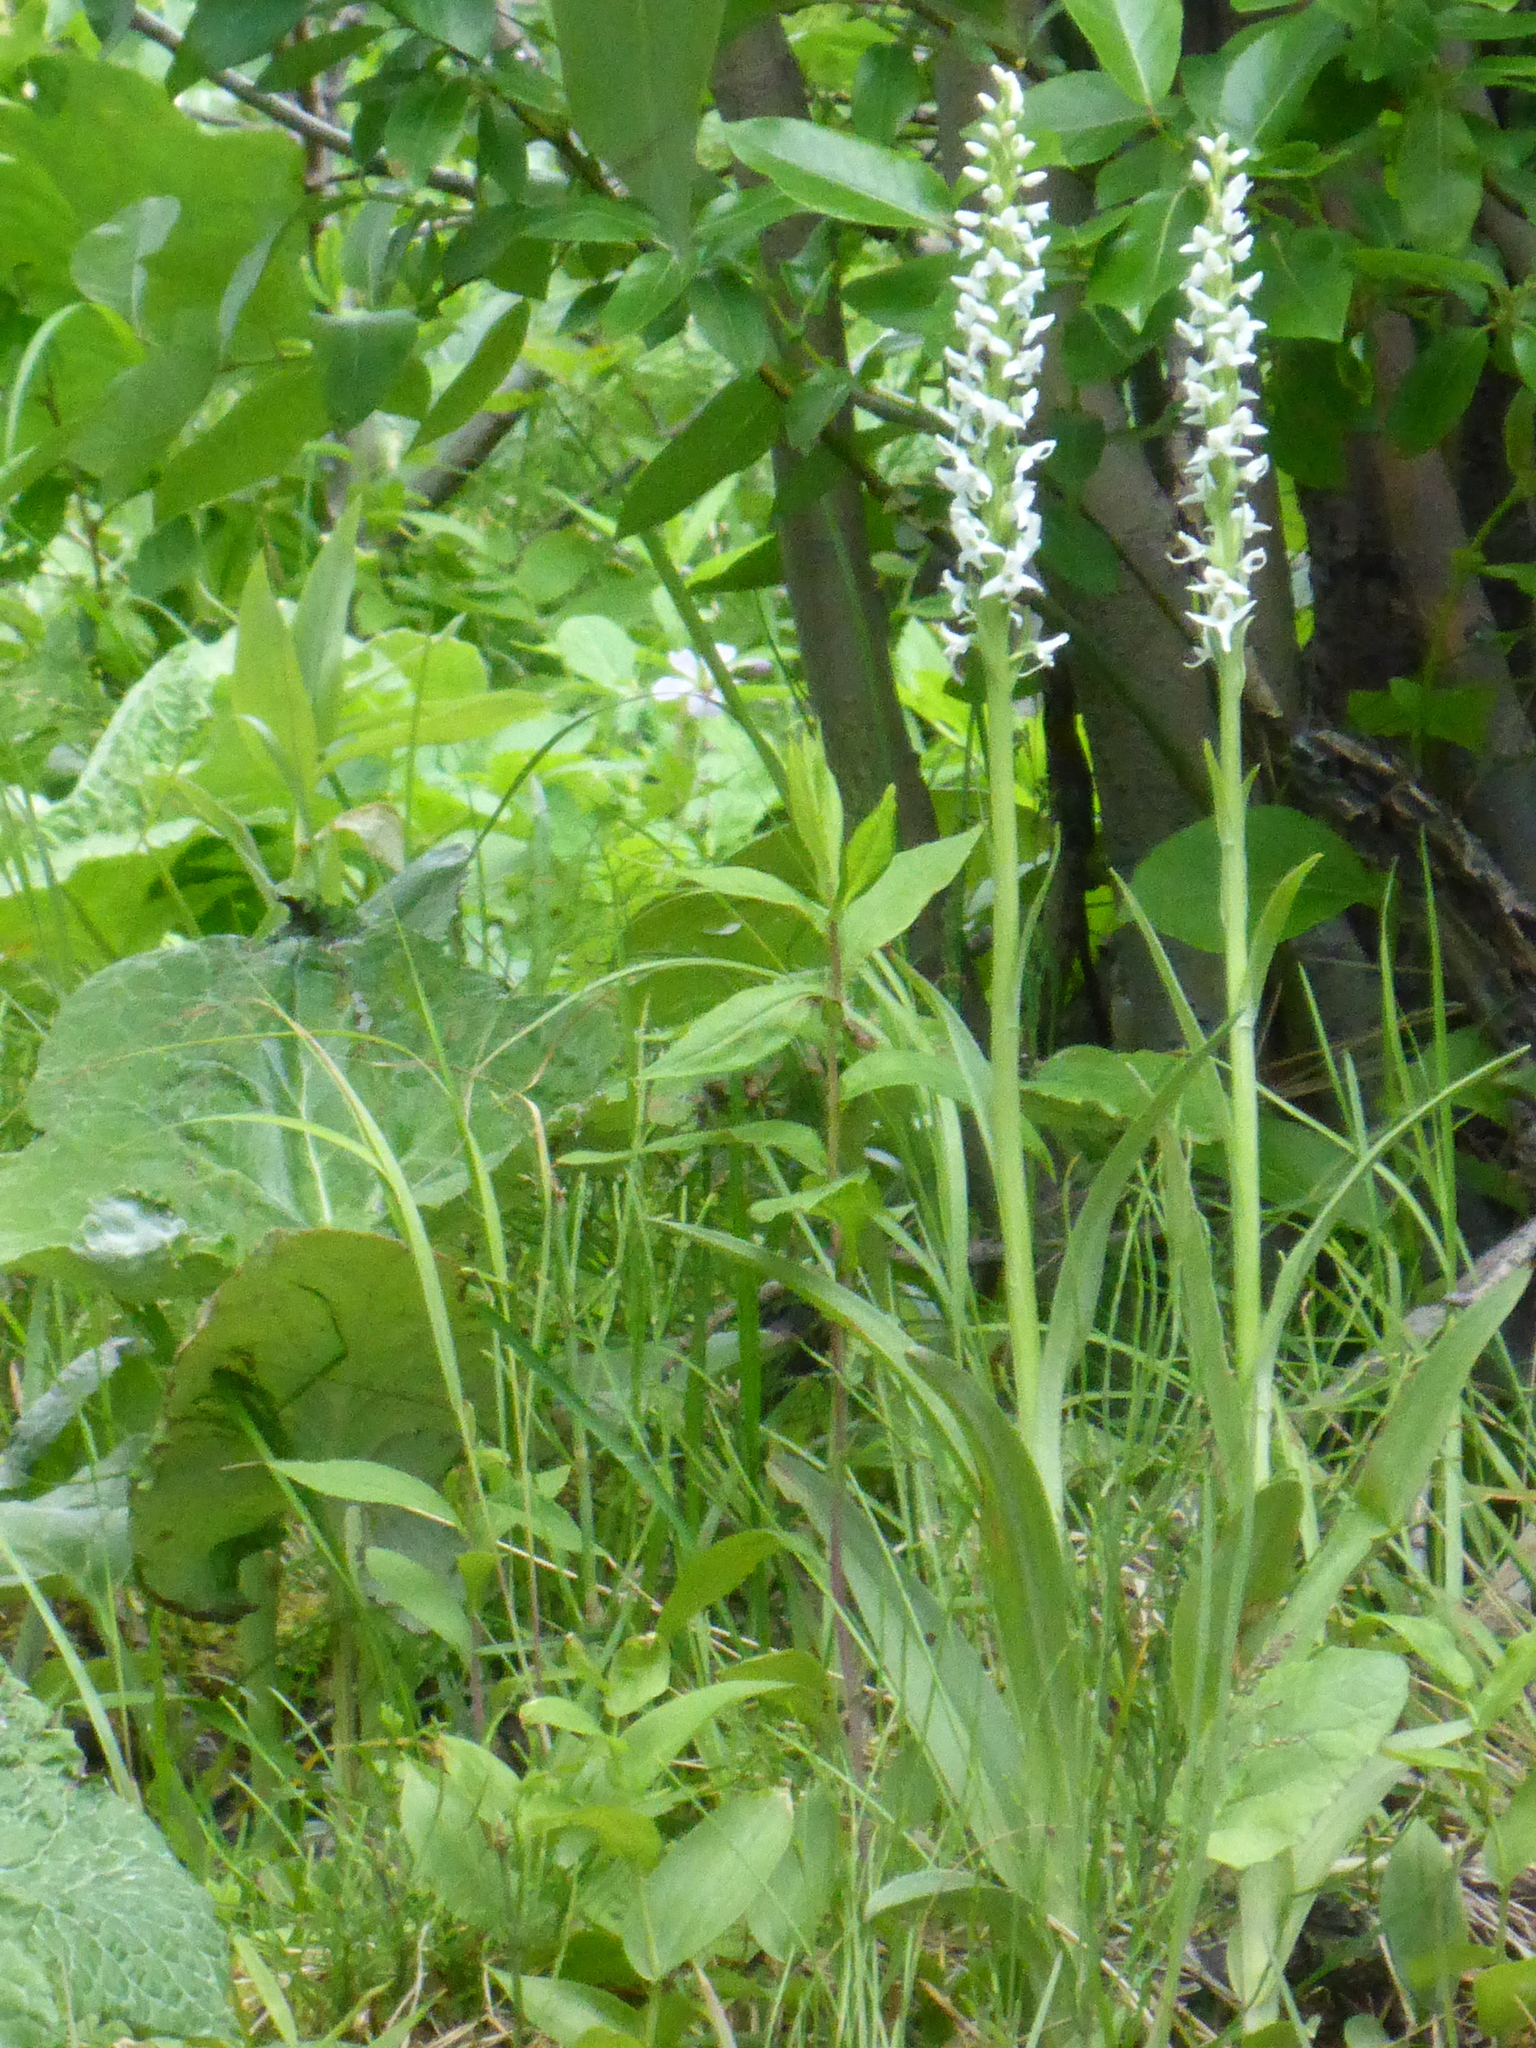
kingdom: Plantae
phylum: Tracheophyta
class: Liliopsida
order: Asparagales
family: Orchidaceae
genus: Platanthera
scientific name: Platanthera dilatata
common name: Bog candles
